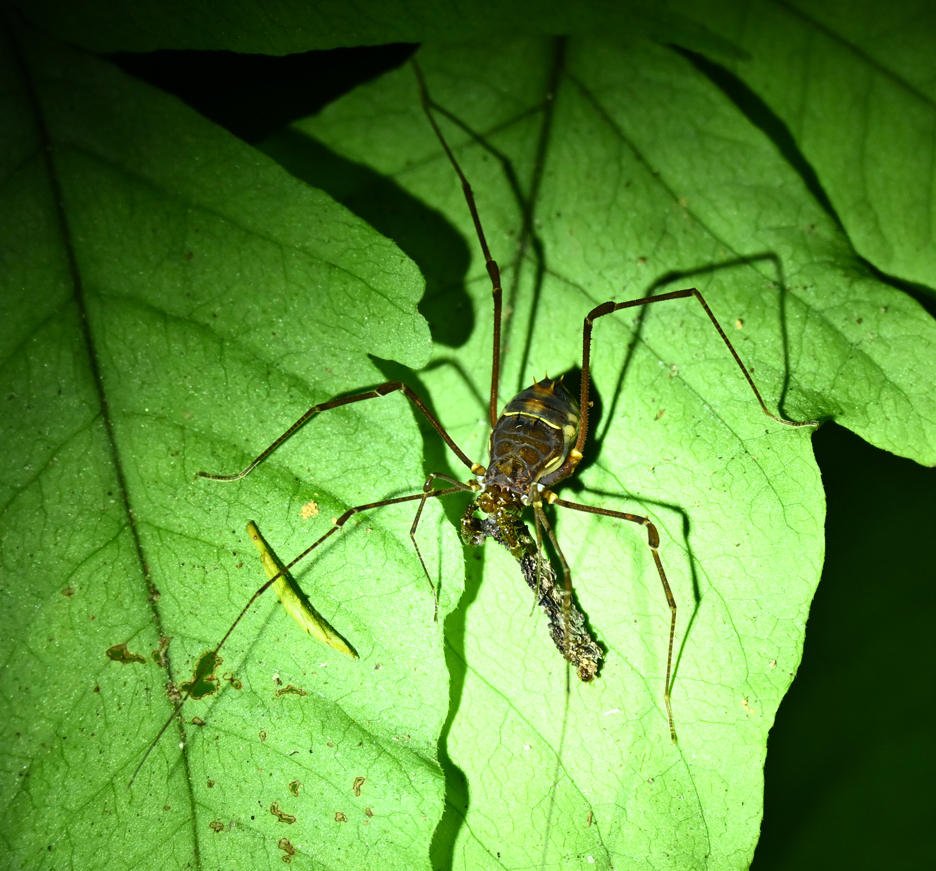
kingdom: Animalia
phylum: Arthropoda
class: Arachnida
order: Opiliones
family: Cranaidae
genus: Phareicranaus
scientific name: Phareicranaus calcariferus
